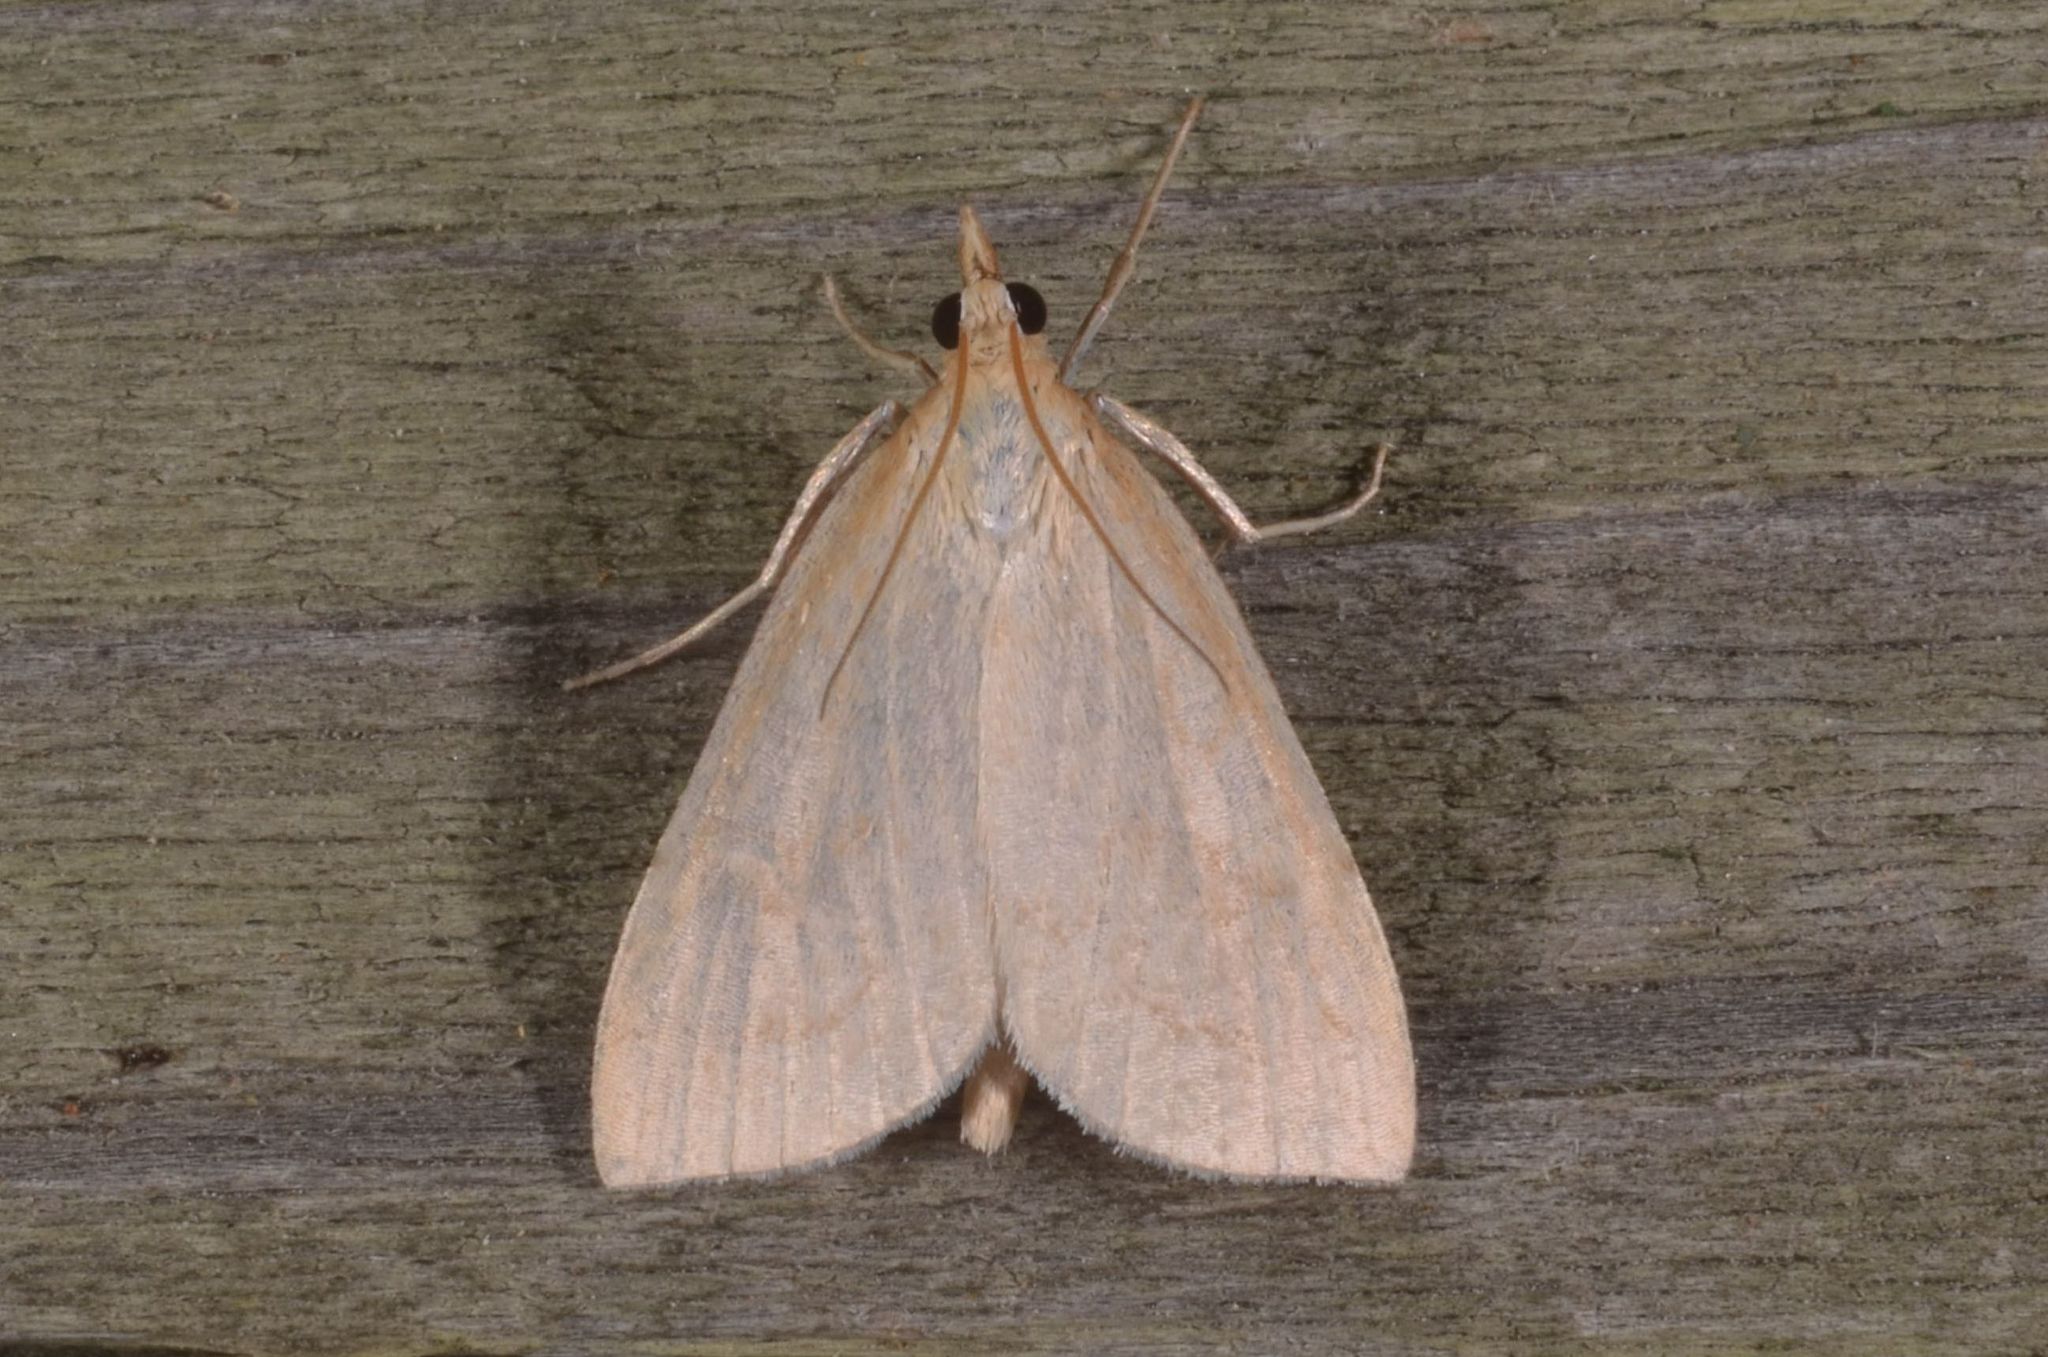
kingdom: Animalia
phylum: Arthropoda
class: Insecta
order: Lepidoptera
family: Crambidae
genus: Udea
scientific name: Udea lutealis
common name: Pale straw pearl
